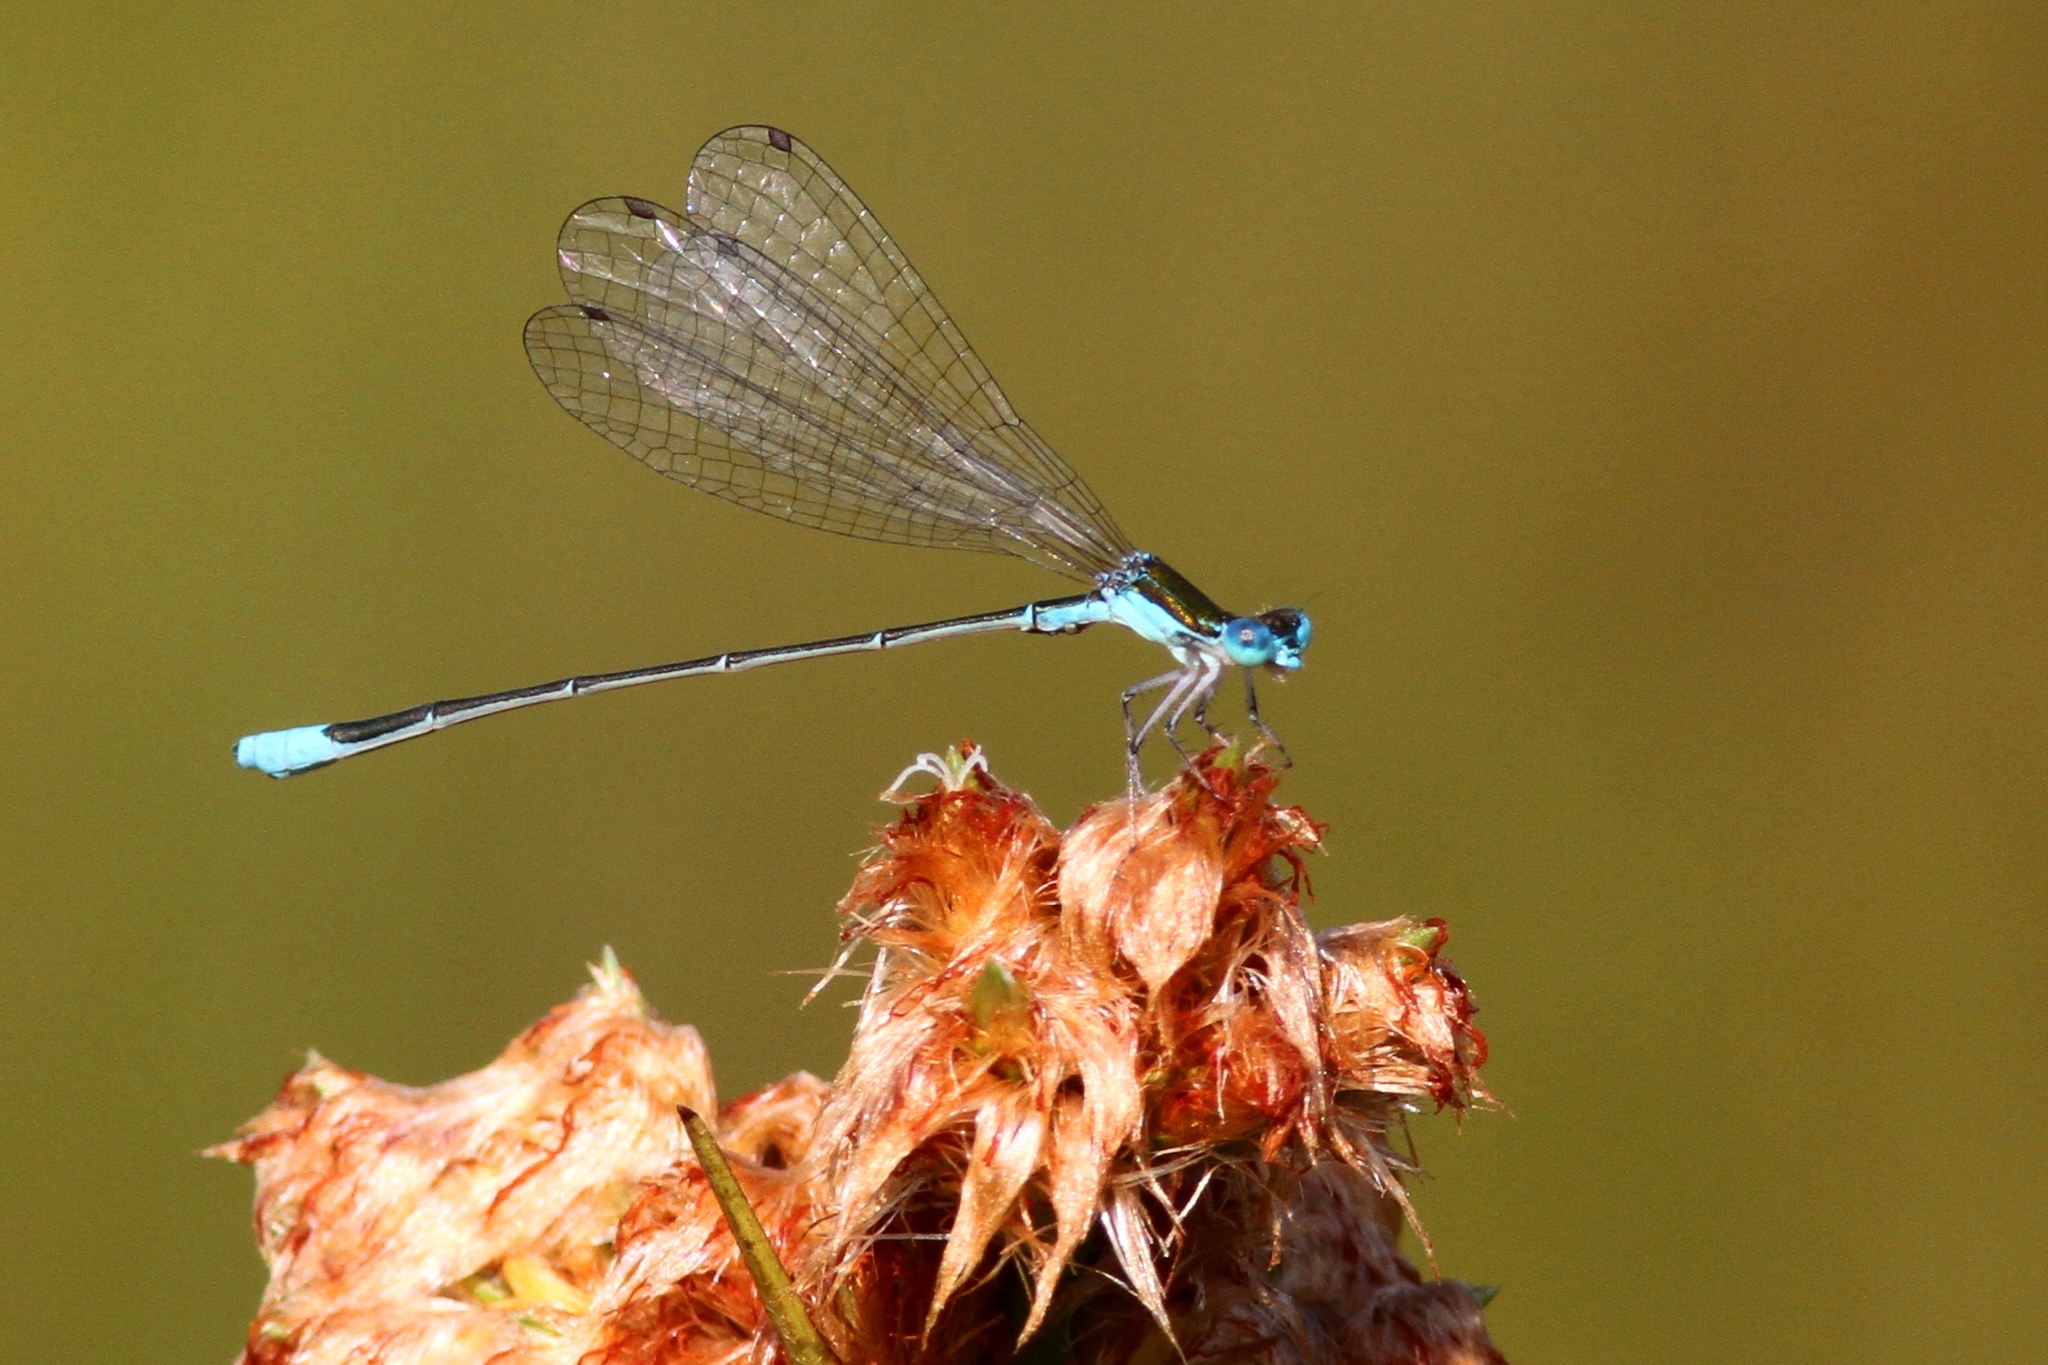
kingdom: Animalia
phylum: Arthropoda
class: Insecta
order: Odonata
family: Coenagrionidae
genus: Nehalennia
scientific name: Nehalennia gracilis
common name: Sphagnum sprite
